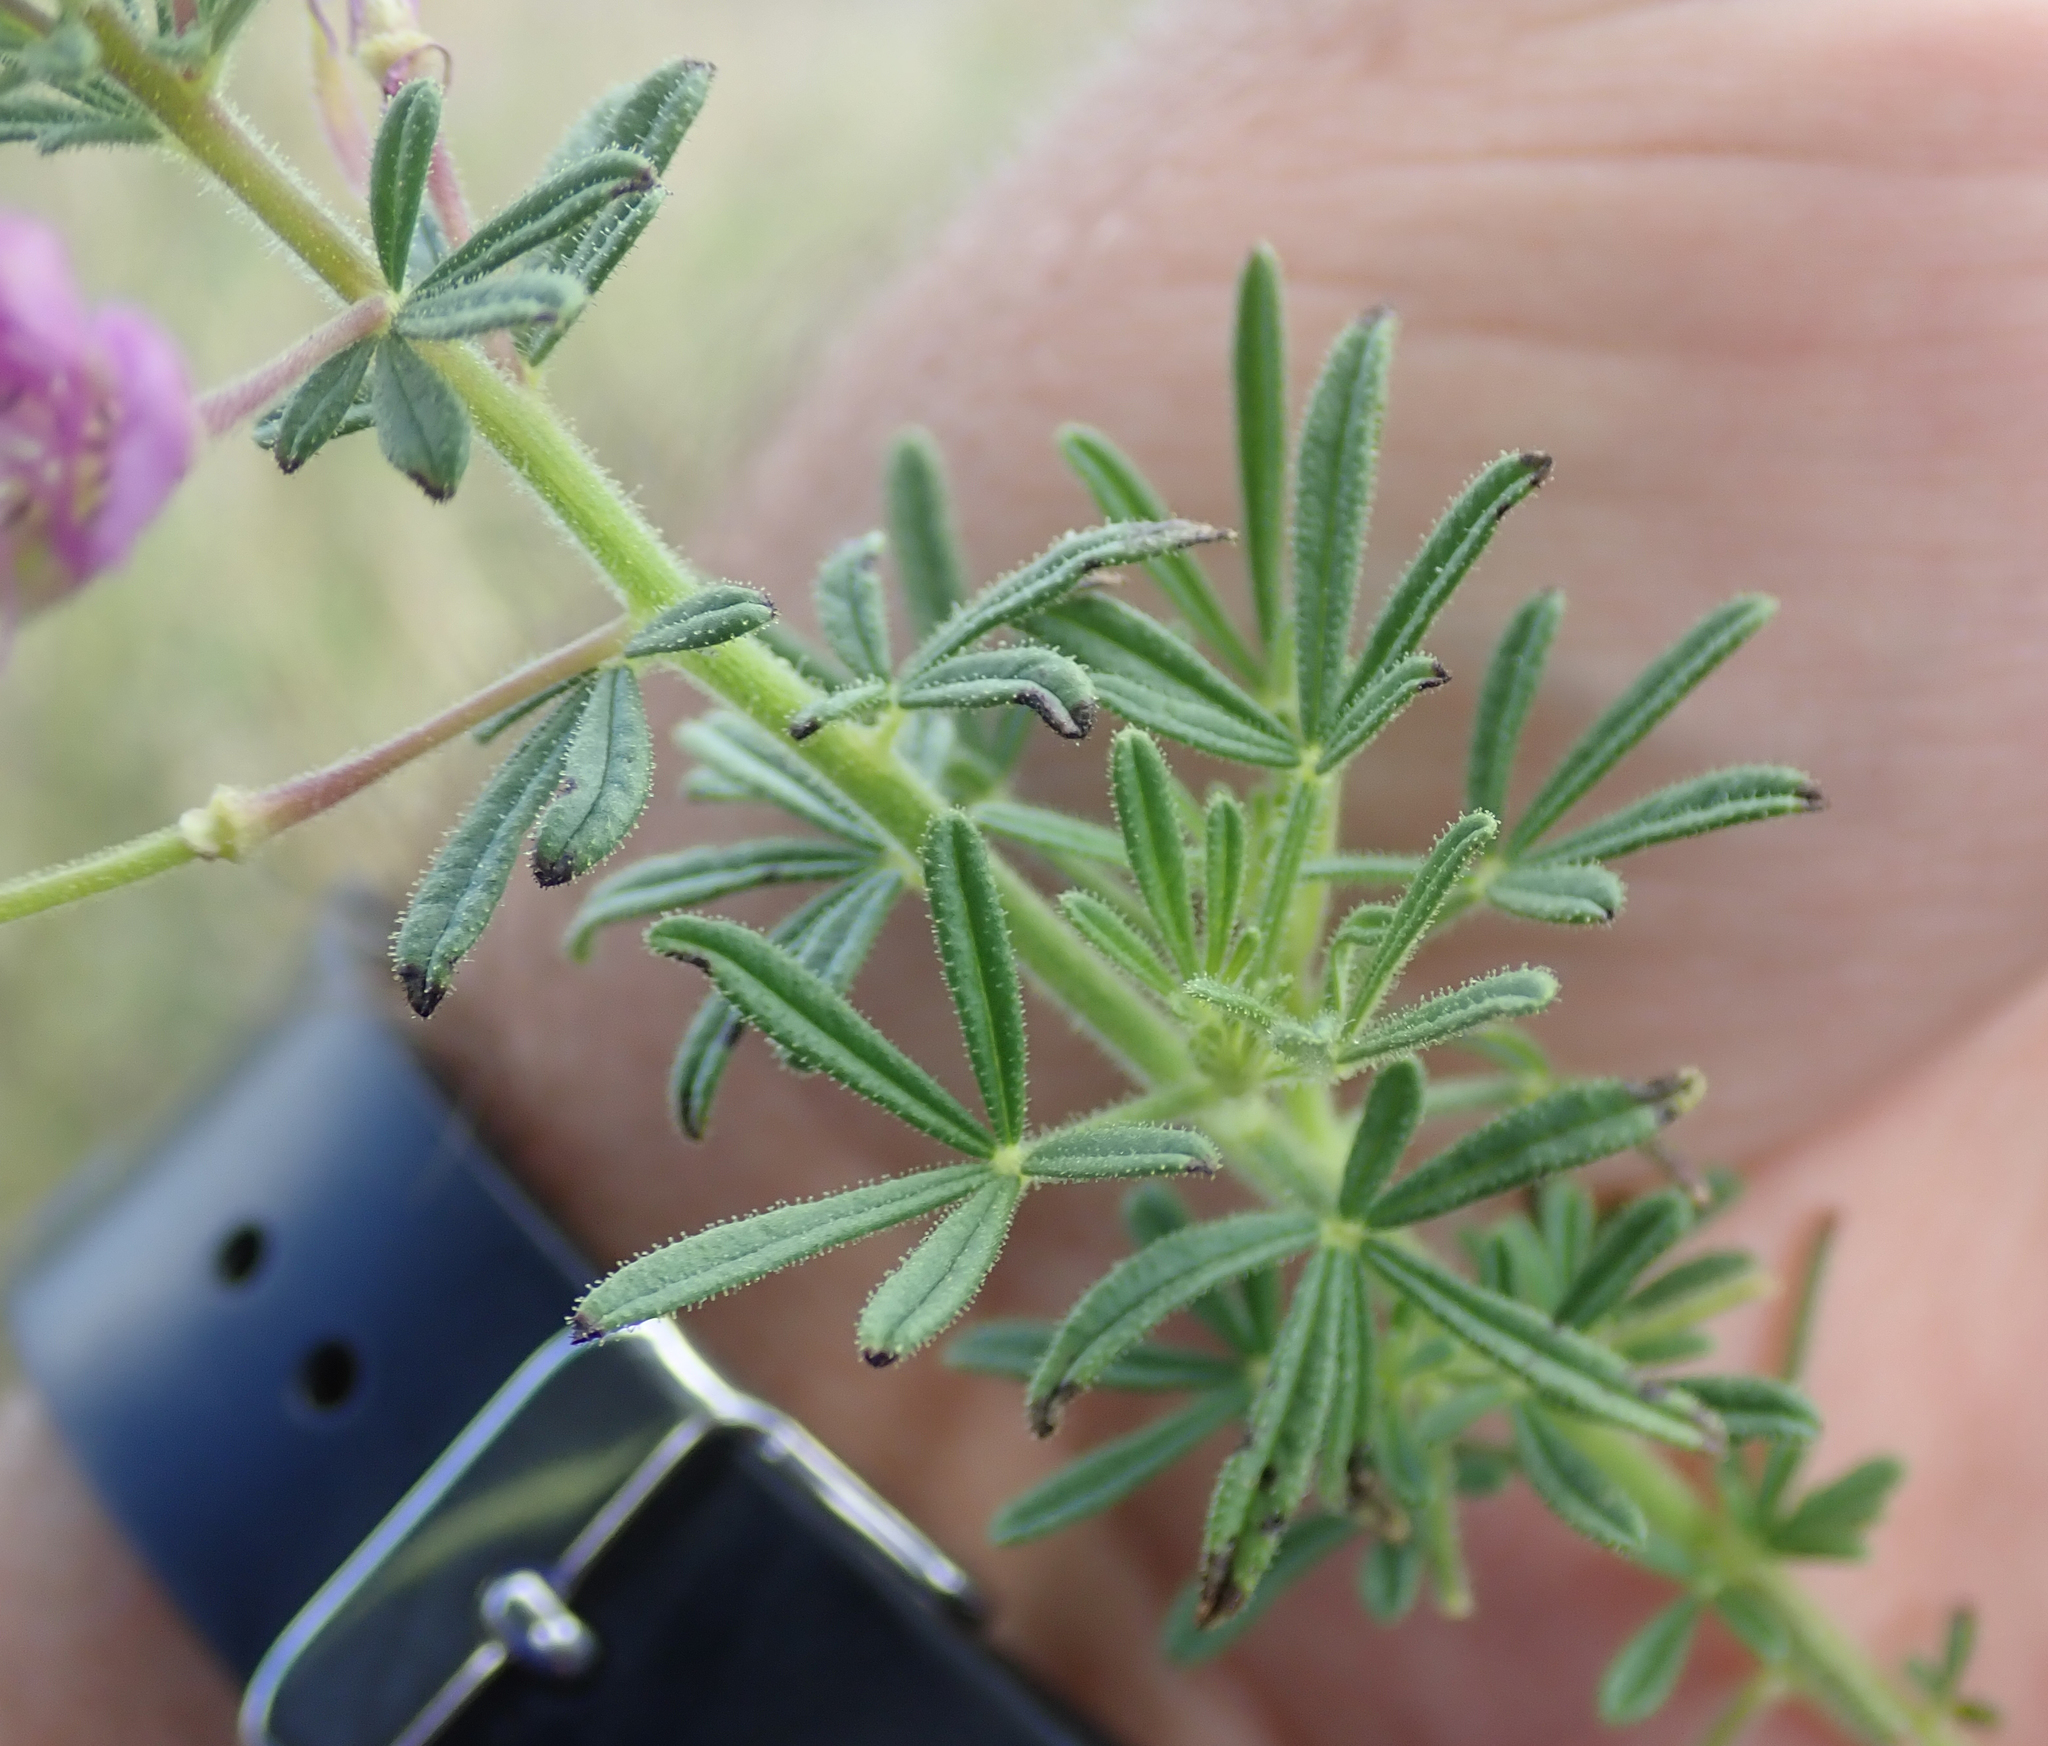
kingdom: Plantae
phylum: Tracheophyta
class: Magnoliopsida
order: Brassicales
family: Cleomaceae
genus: Sieruela
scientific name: Sieruela
